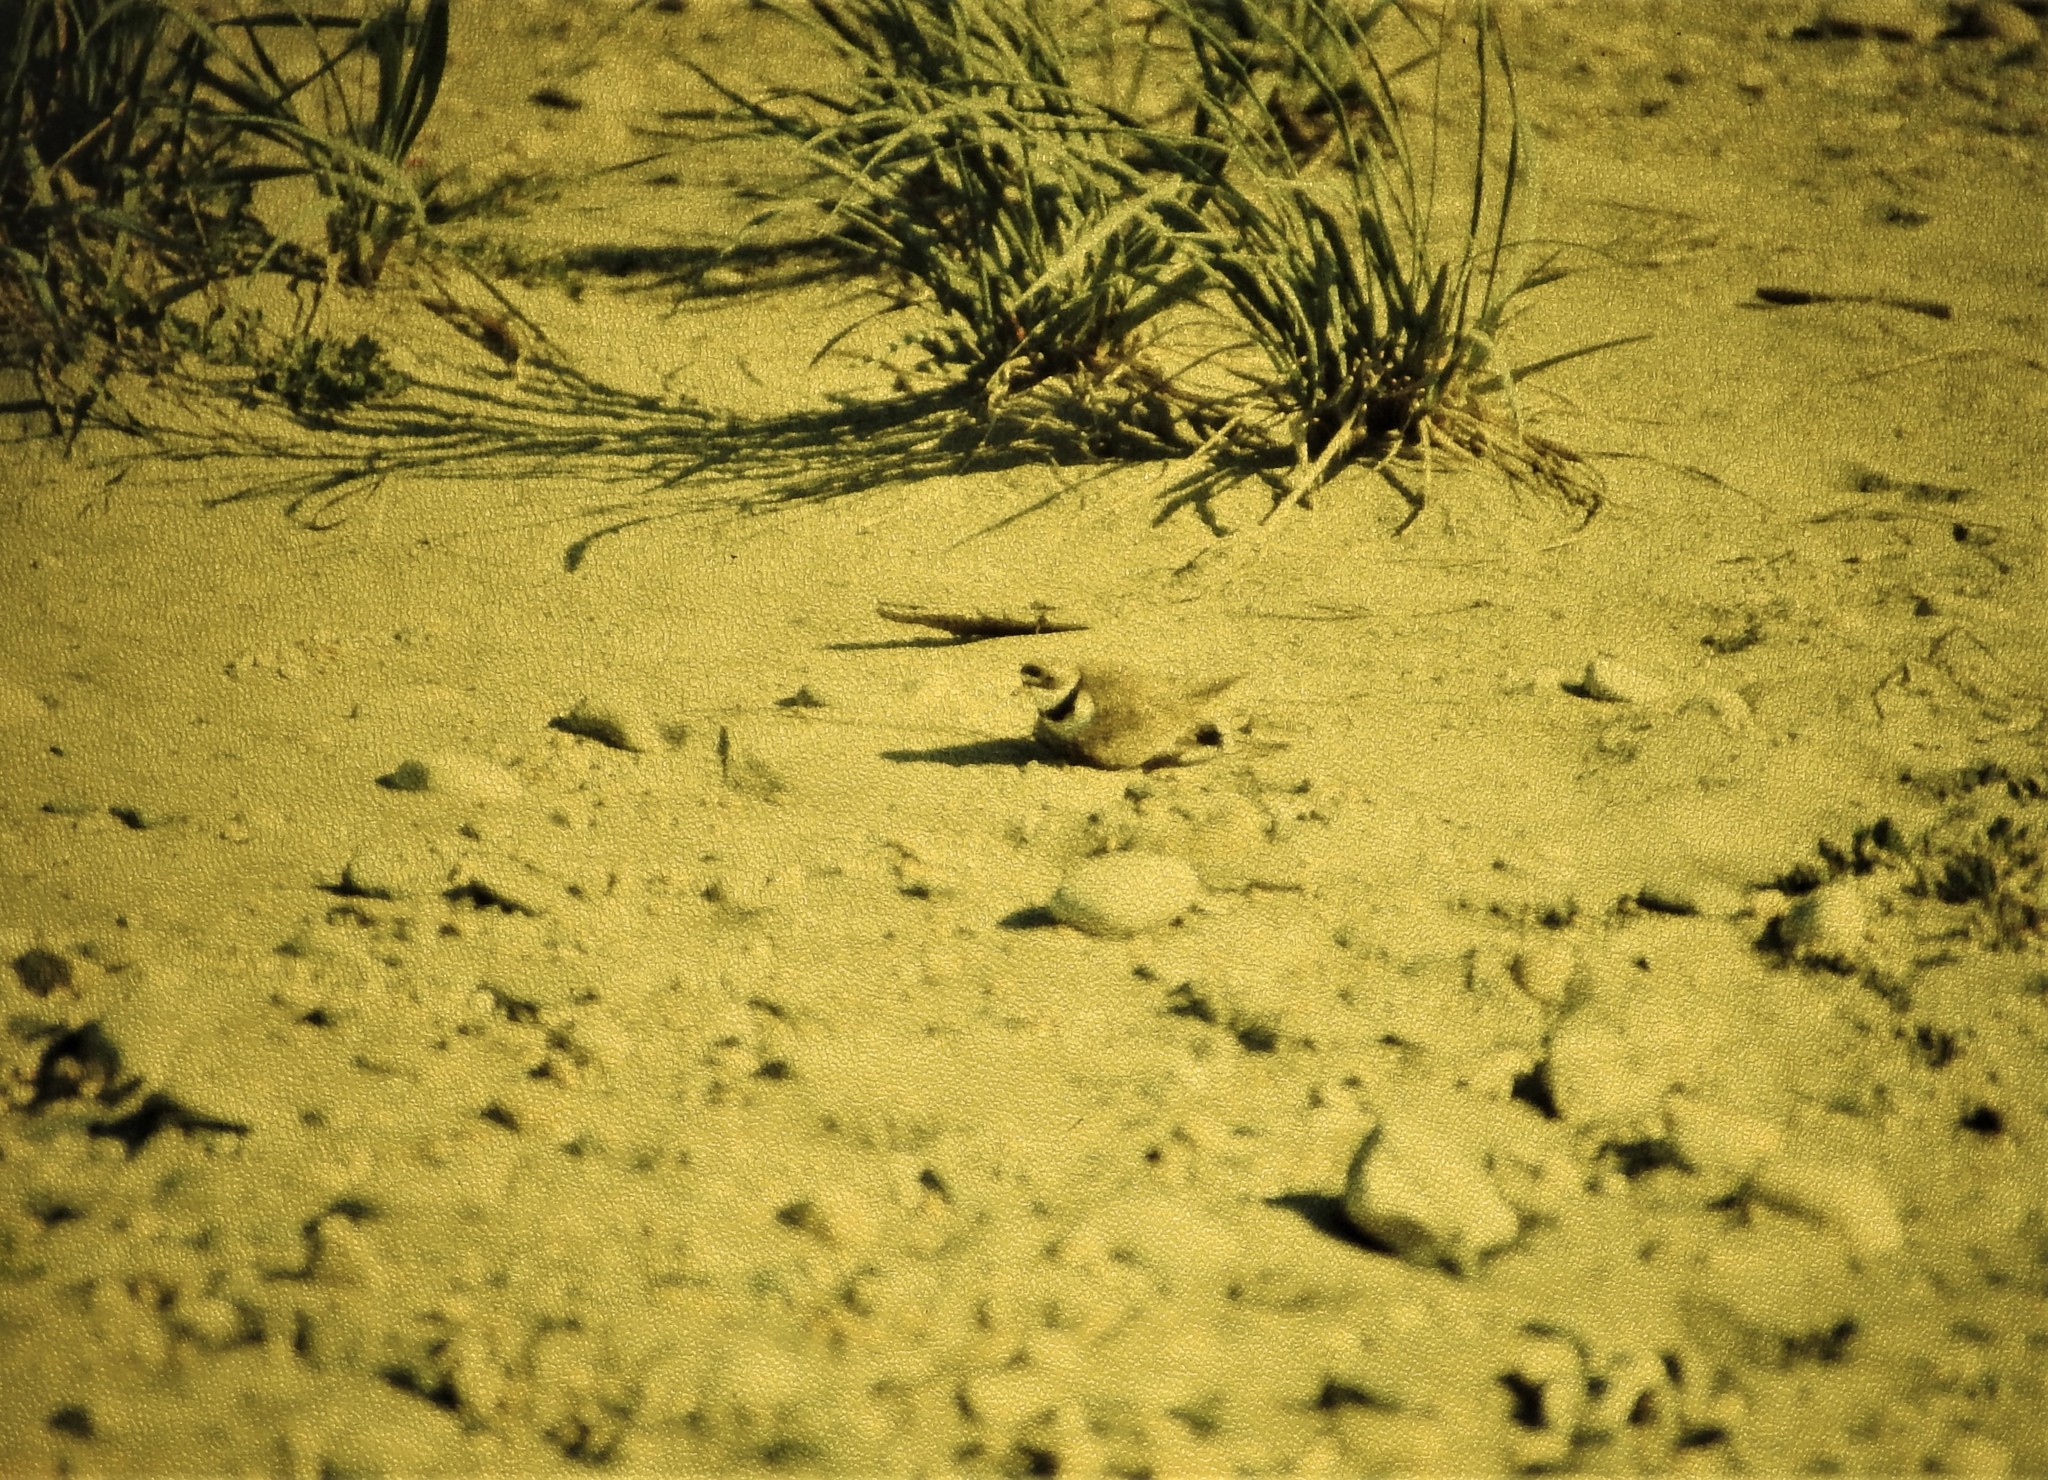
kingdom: Animalia
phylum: Chordata
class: Aves
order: Charadriiformes
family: Charadriidae
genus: Charadrius
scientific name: Charadrius semipalmatus
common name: Semipalmated plover
